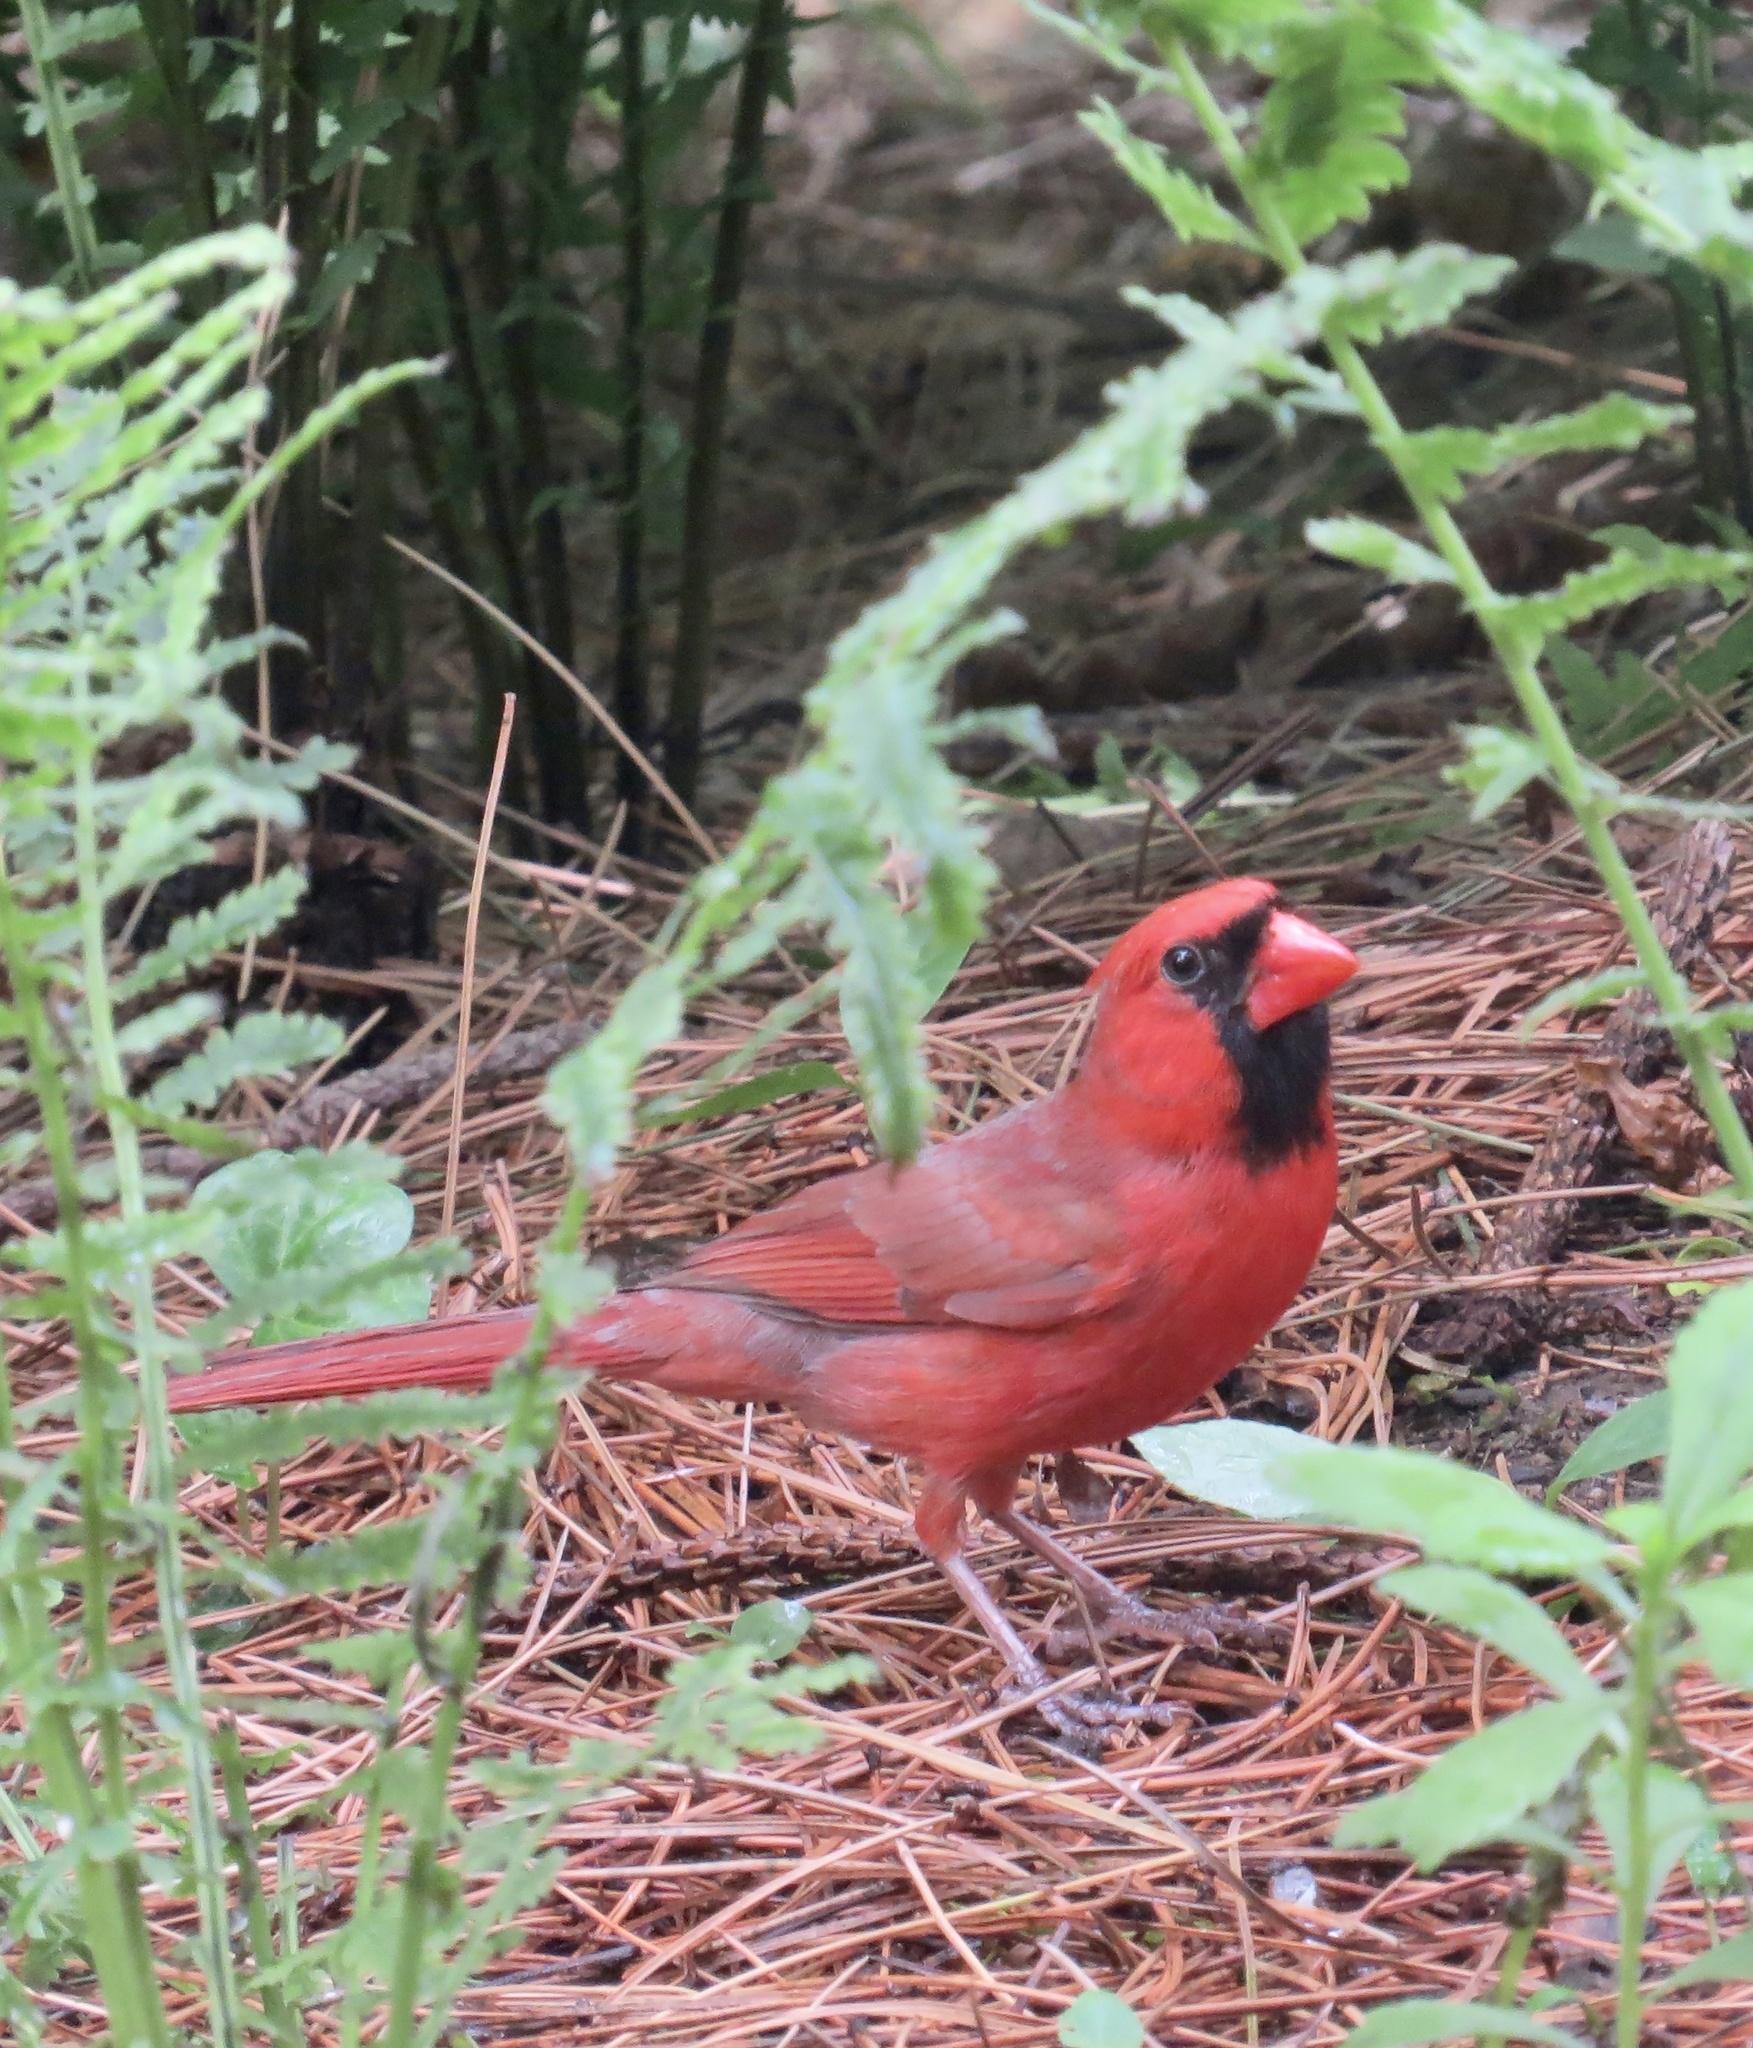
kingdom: Animalia
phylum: Chordata
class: Aves
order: Passeriformes
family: Cardinalidae
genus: Cardinalis
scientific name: Cardinalis cardinalis
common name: Northern cardinal
